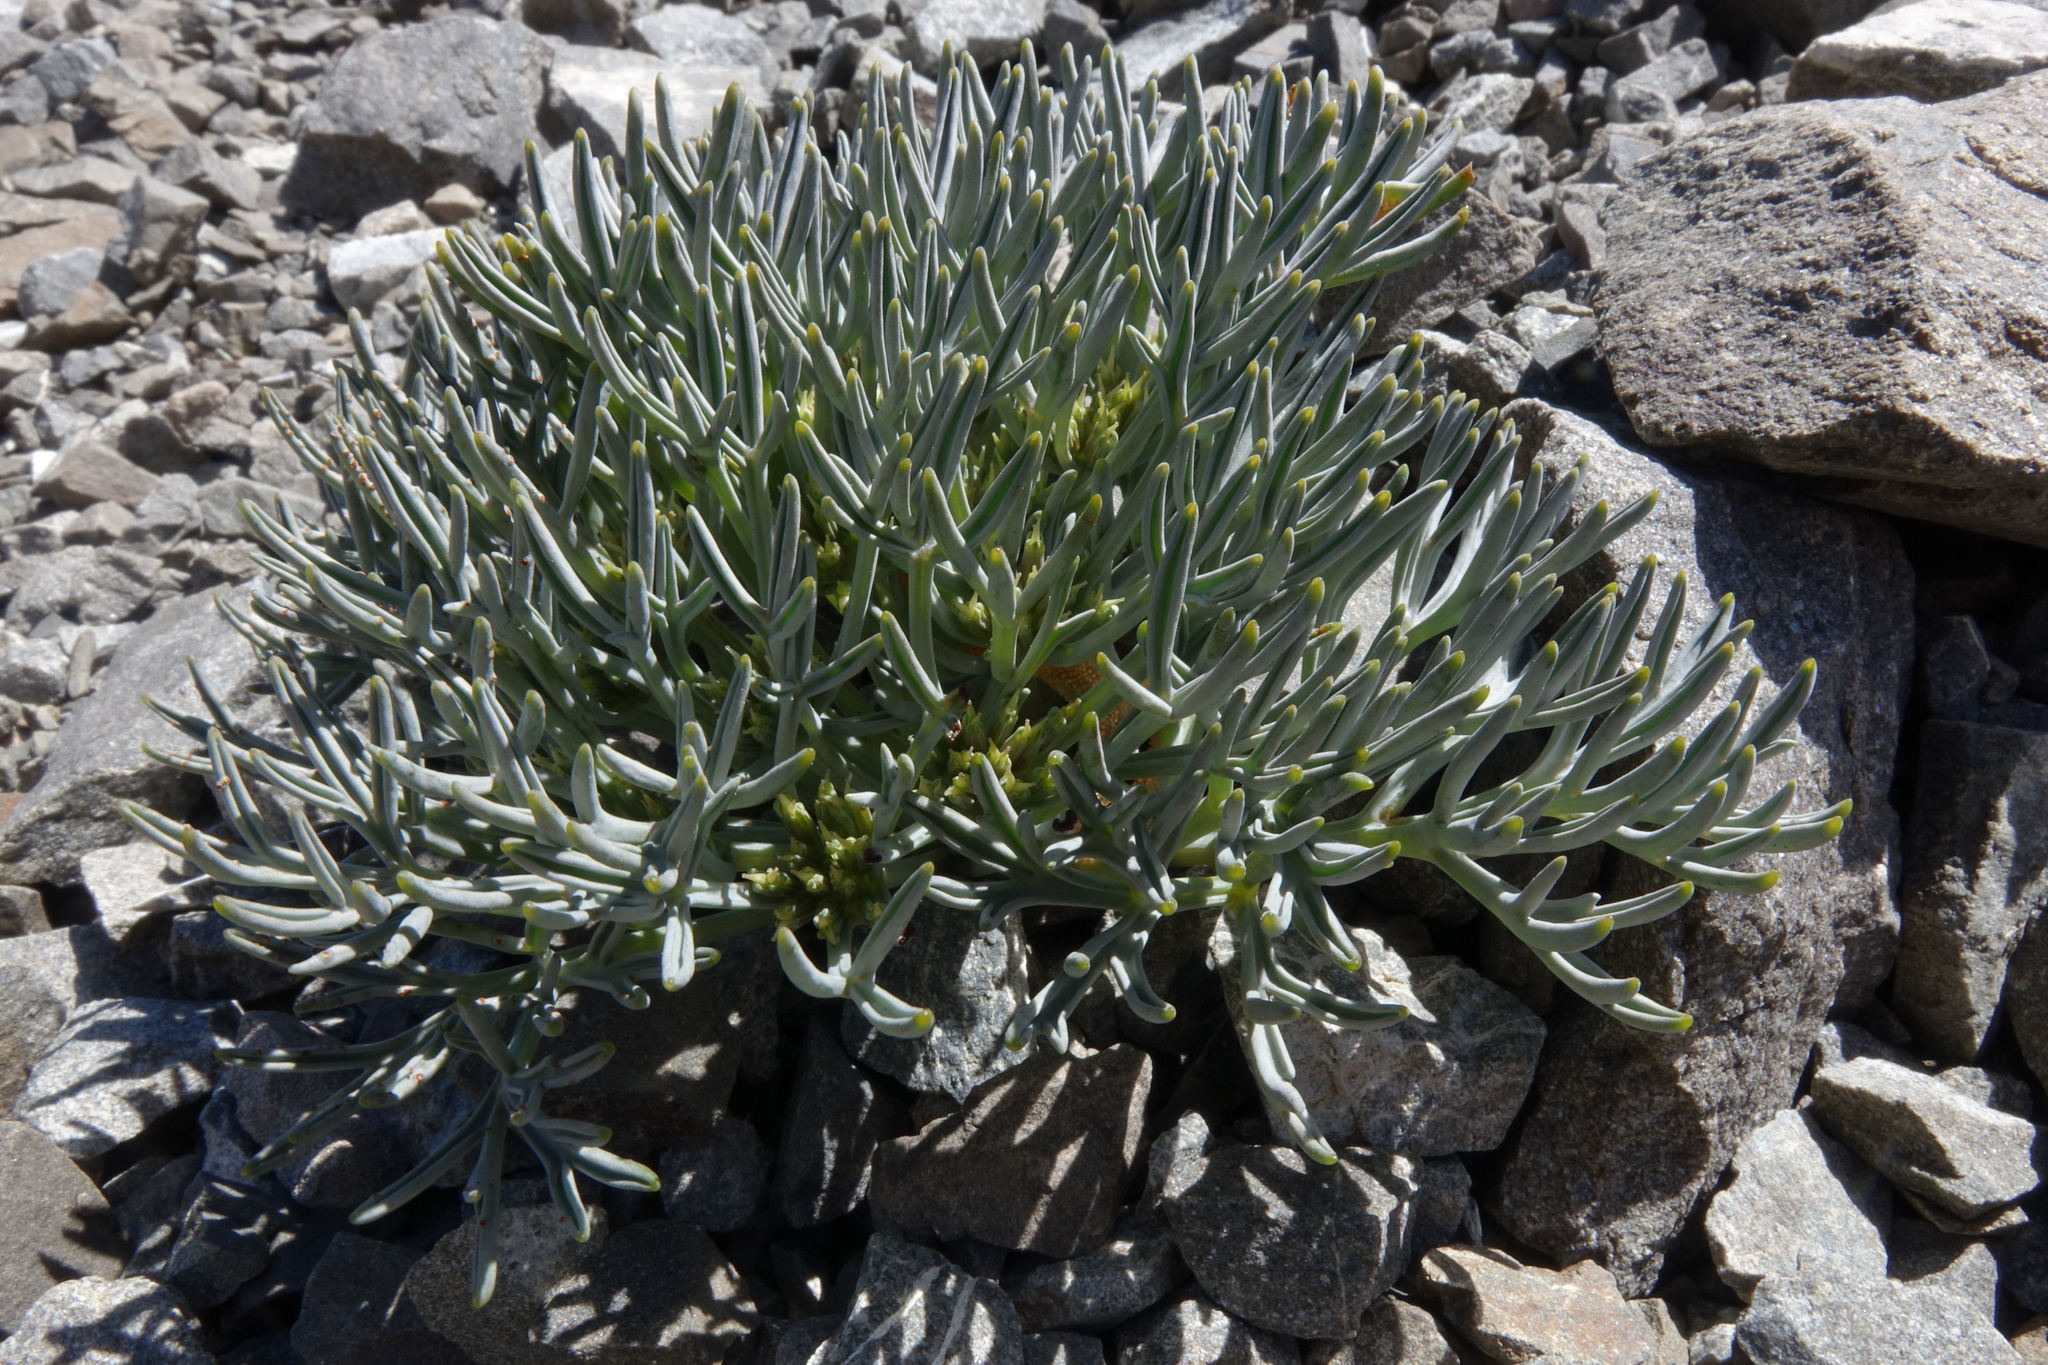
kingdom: Plantae
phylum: Tracheophyta
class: Magnoliopsida
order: Apiales
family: Apiaceae
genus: Lignocarpa
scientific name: Lignocarpa carnosula
